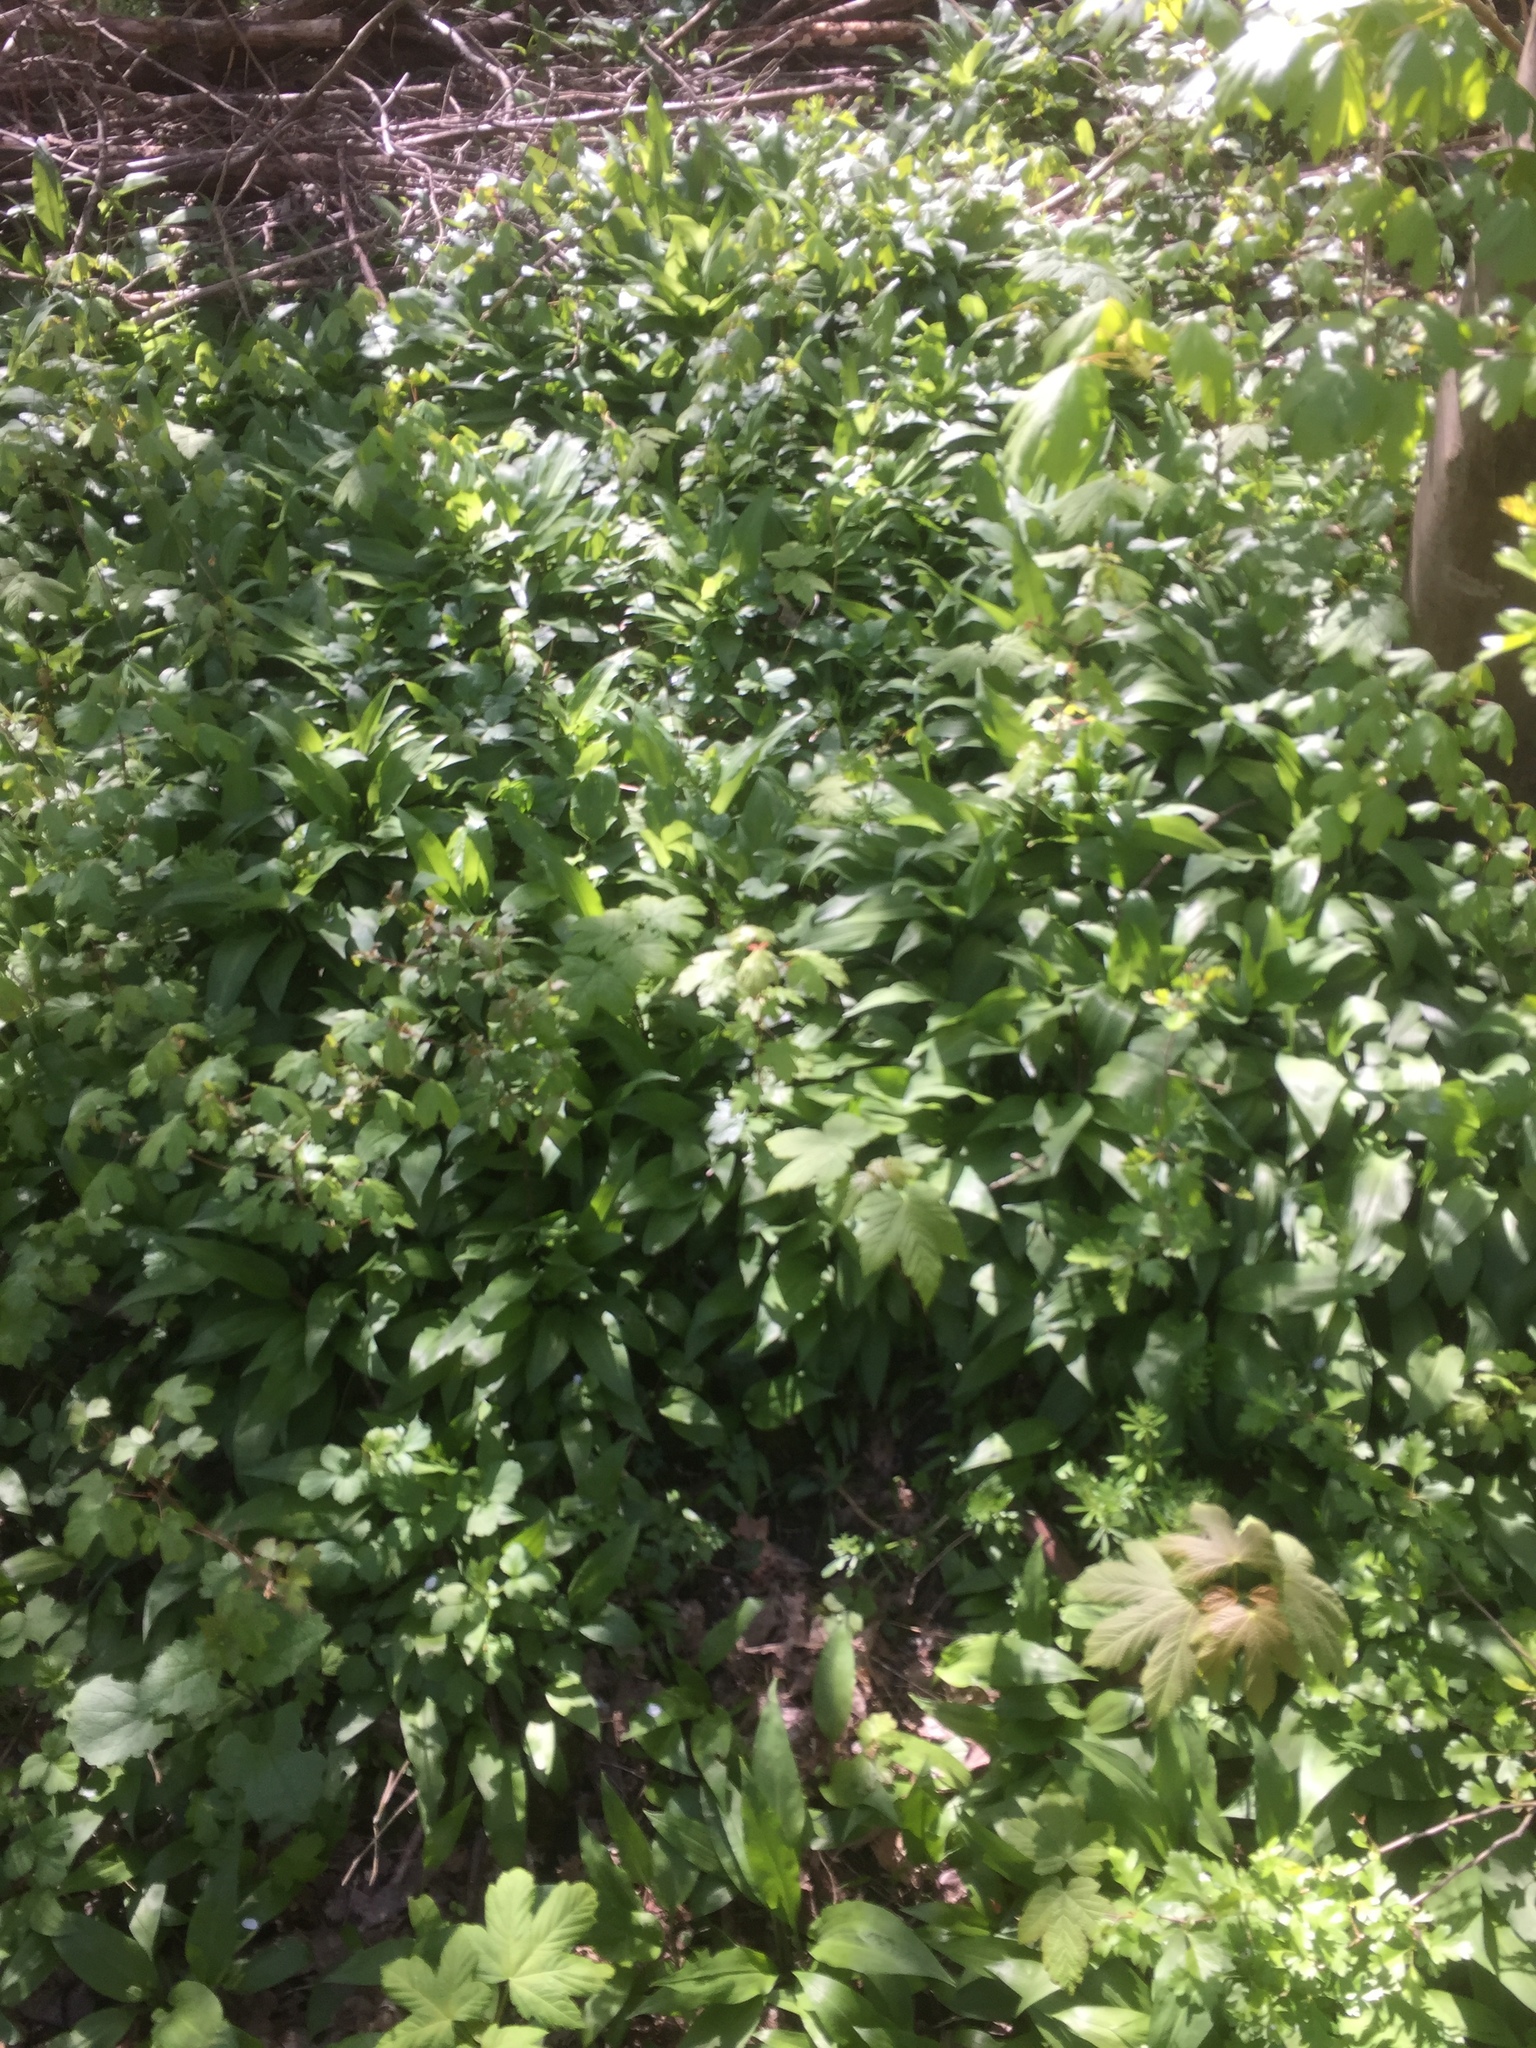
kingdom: Plantae
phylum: Tracheophyta
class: Liliopsida
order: Asparagales
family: Amaryllidaceae
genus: Allium
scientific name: Allium ursinum
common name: Ramsons
